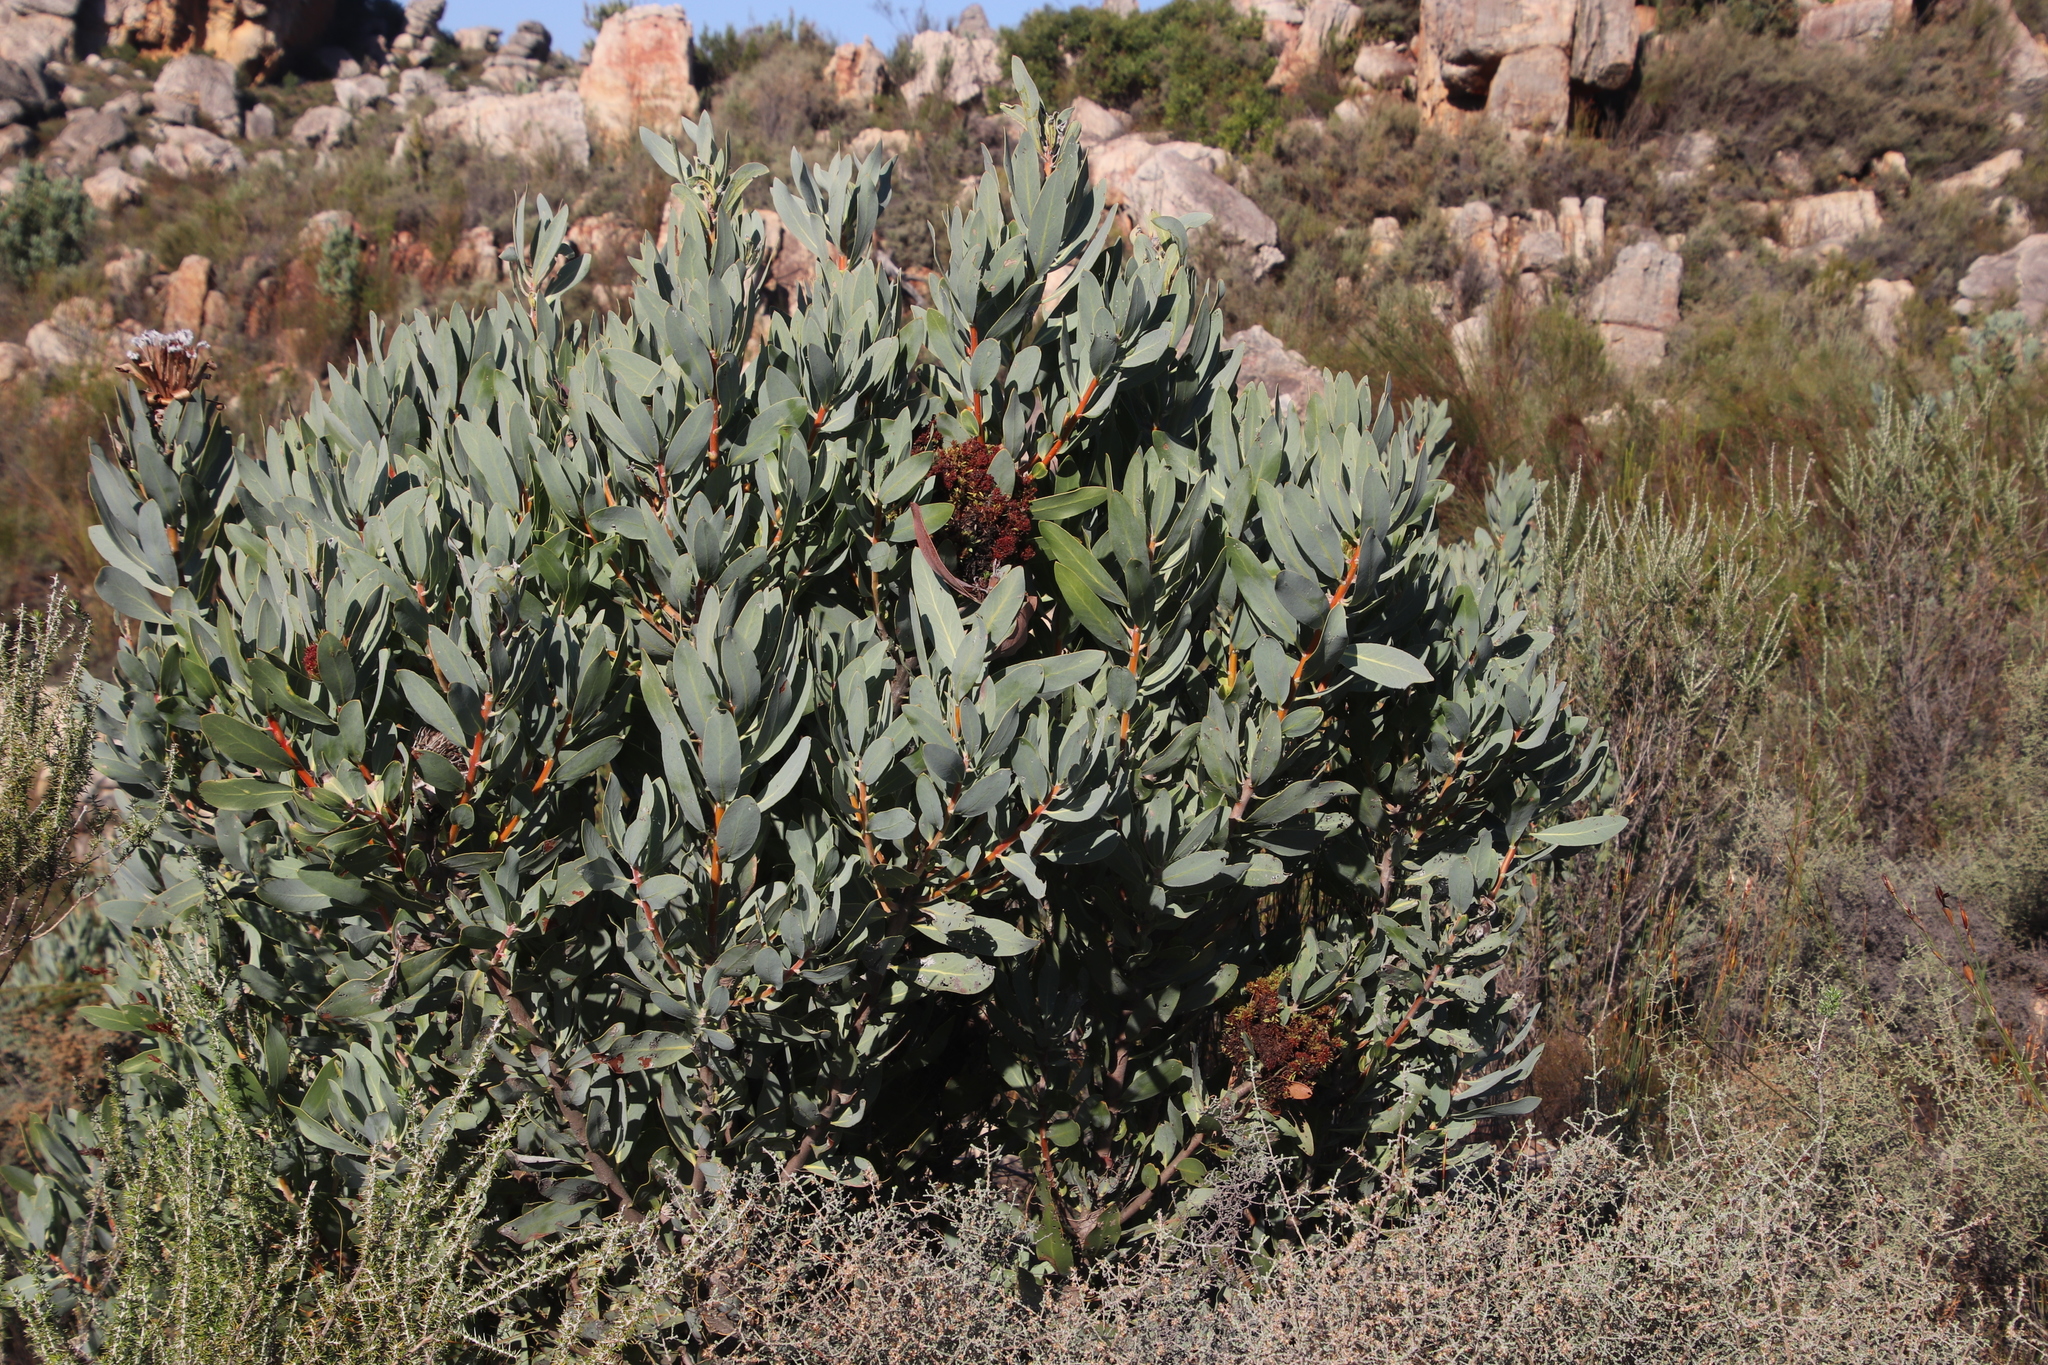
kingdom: Plantae
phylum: Tracheophyta
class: Magnoliopsida
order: Proteales
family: Proteaceae
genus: Protea
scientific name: Protea laurifolia
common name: Grey-leaf sugarbsh
